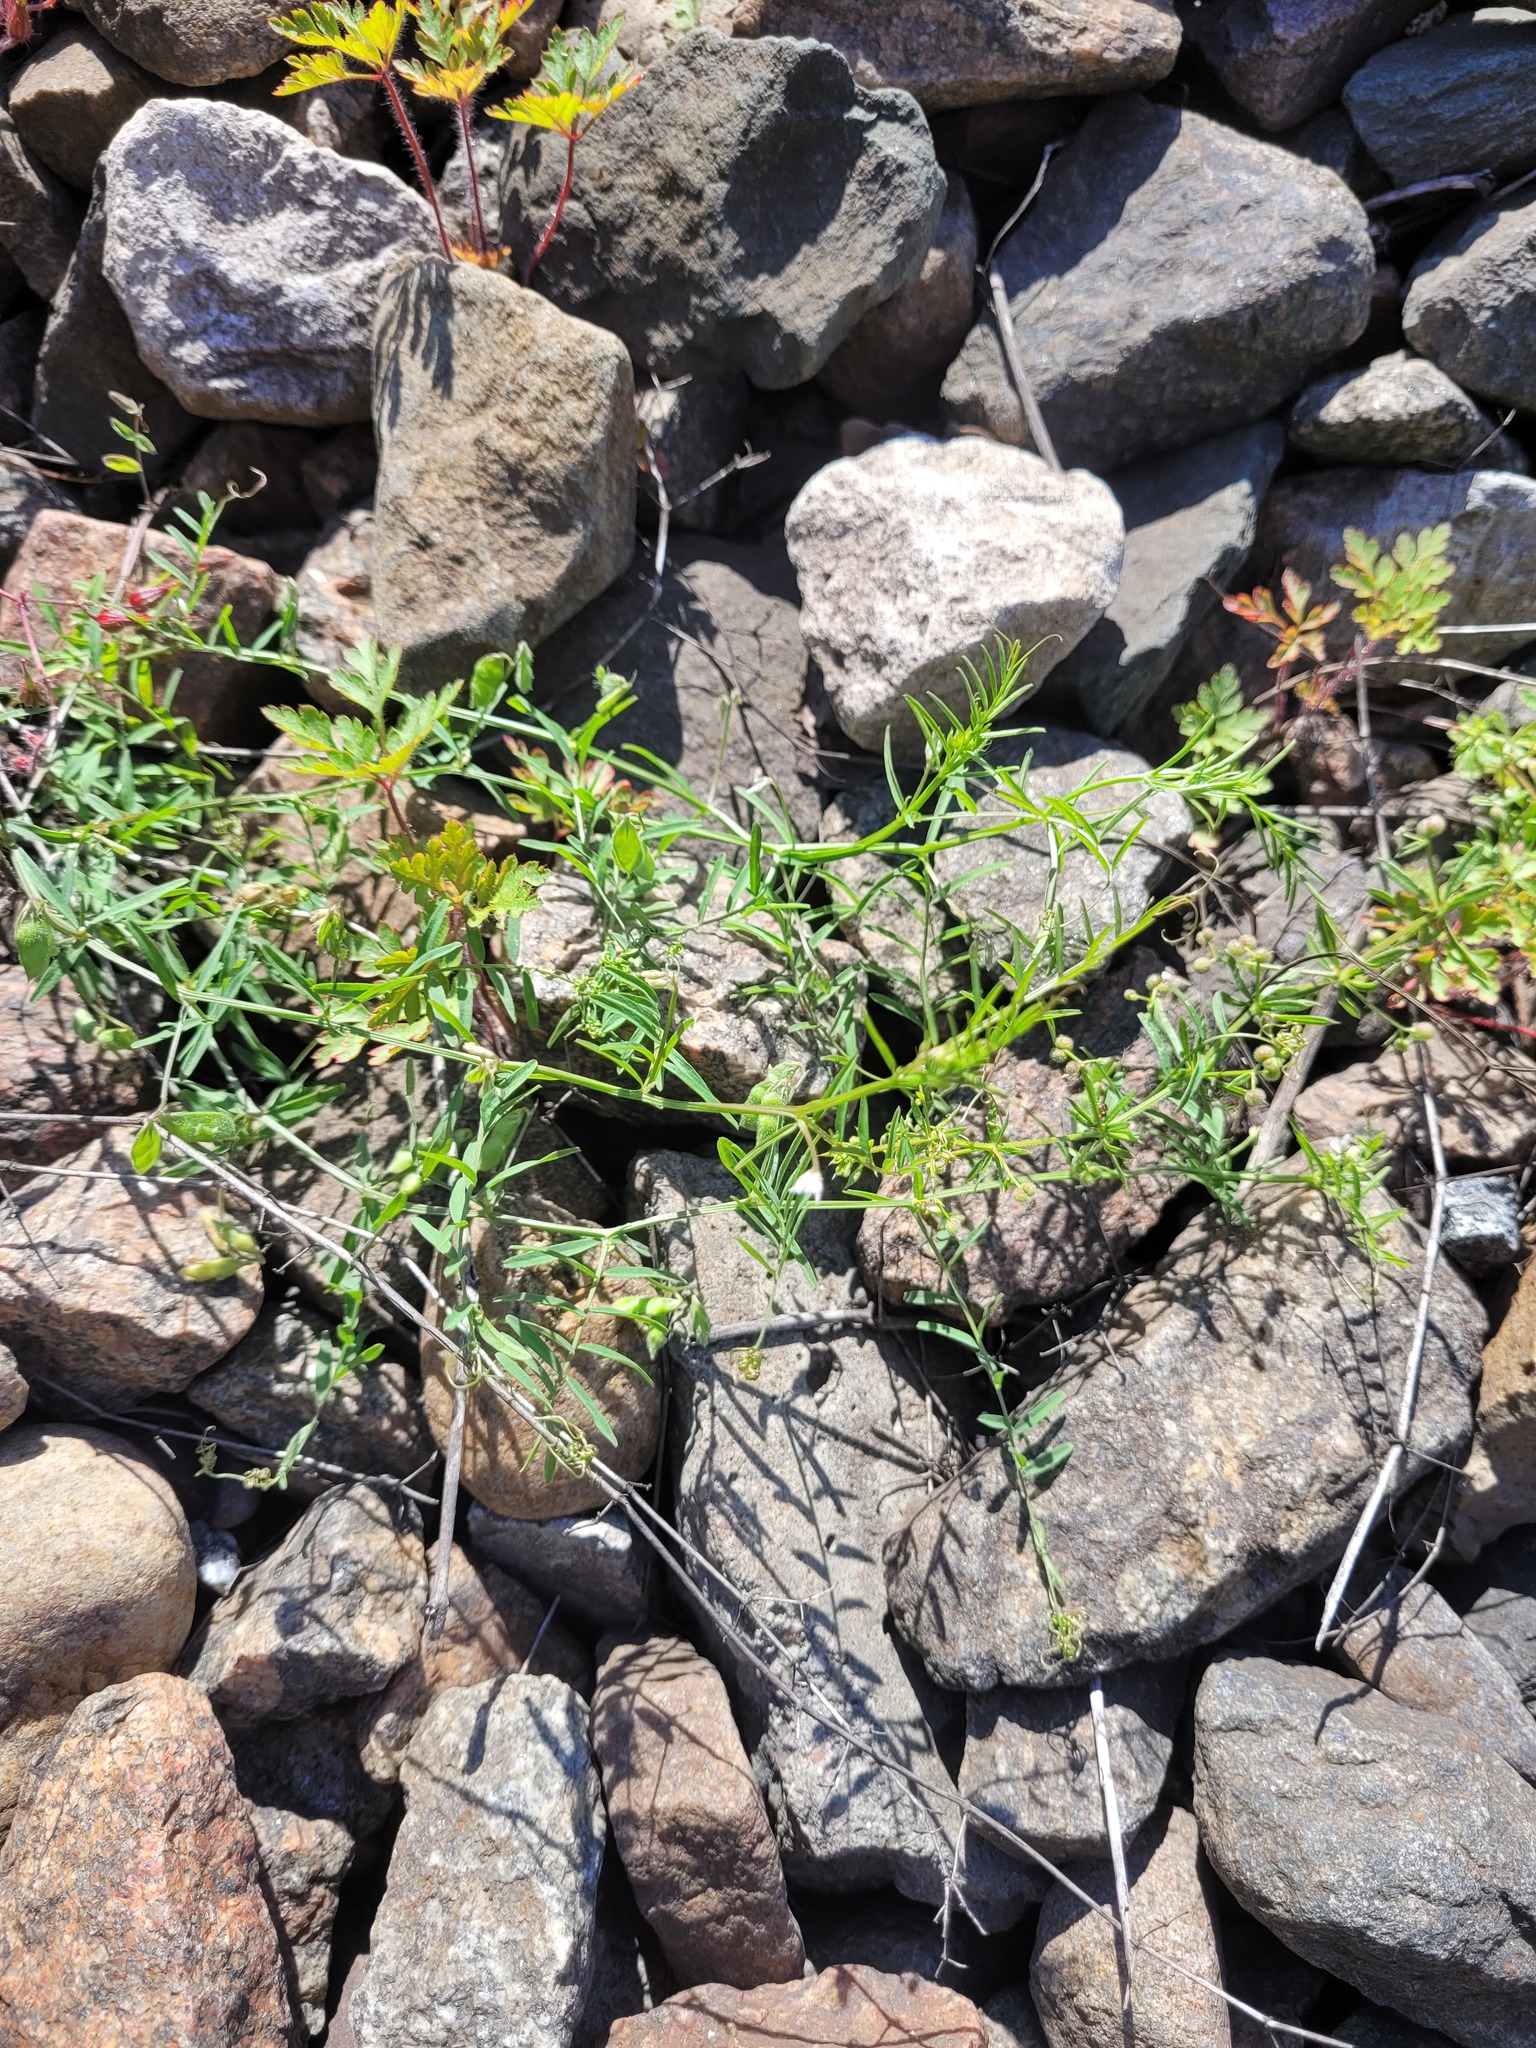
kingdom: Plantae
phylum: Tracheophyta
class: Magnoliopsida
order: Fabales
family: Fabaceae
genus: Vicia
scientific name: Vicia hirsuta
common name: Tiny vetch
